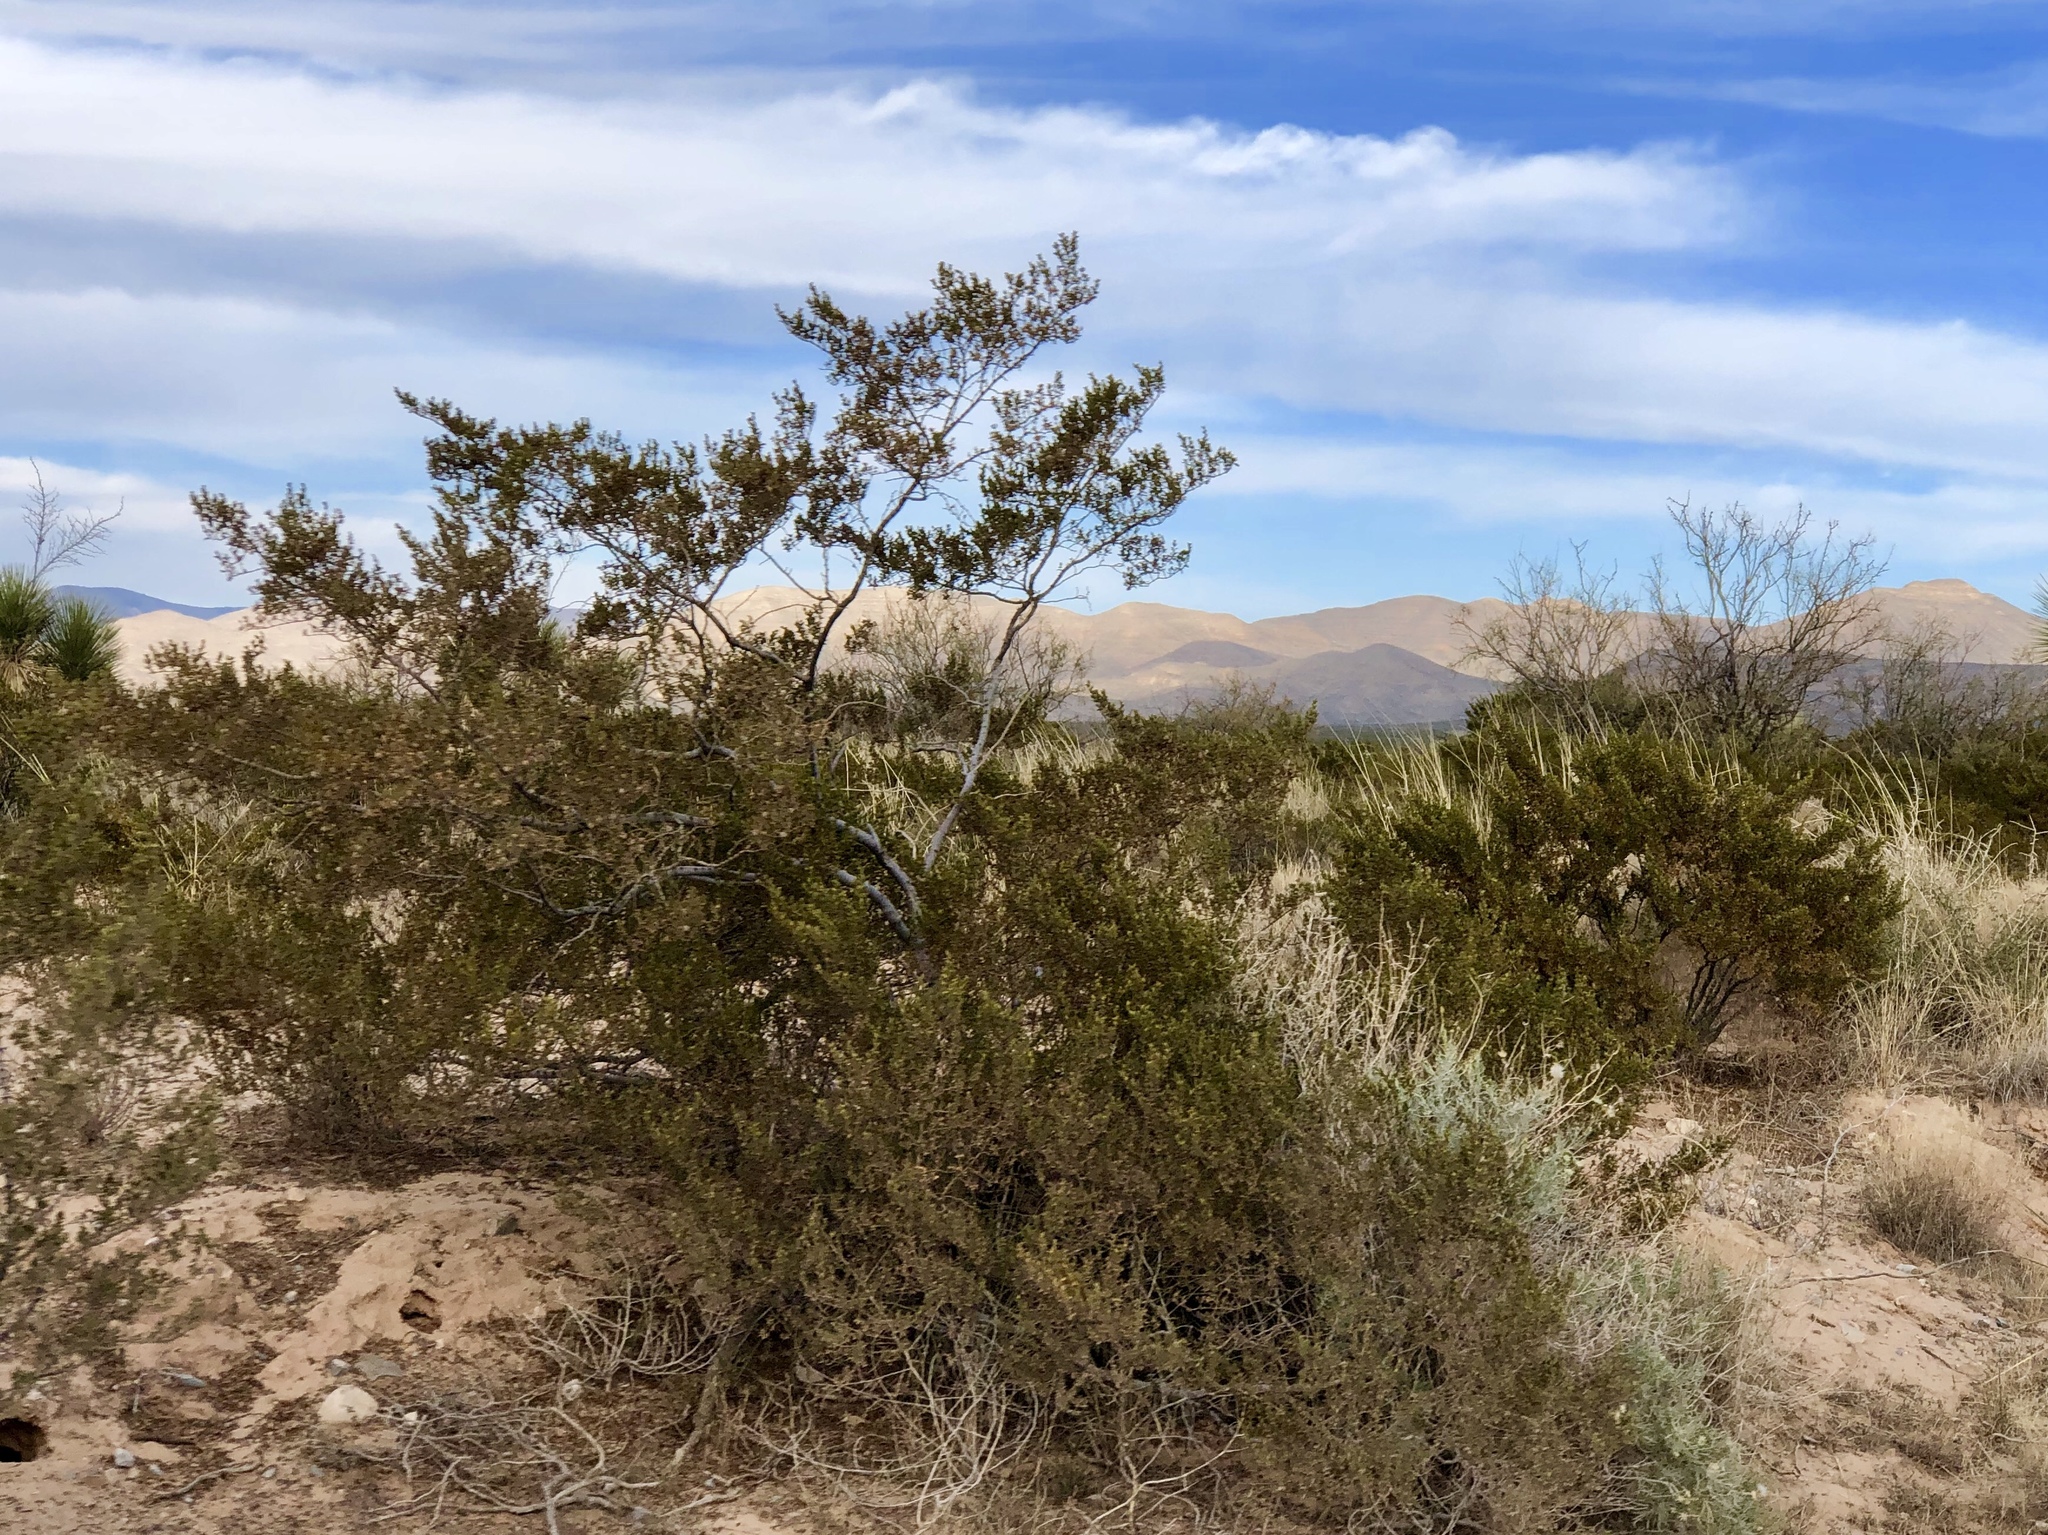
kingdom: Plantae
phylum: Tracheophyta
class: Magnoliopsida
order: Zygophyllales
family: Zygophyllaceae
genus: Larrea
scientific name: Larrea tridentata
